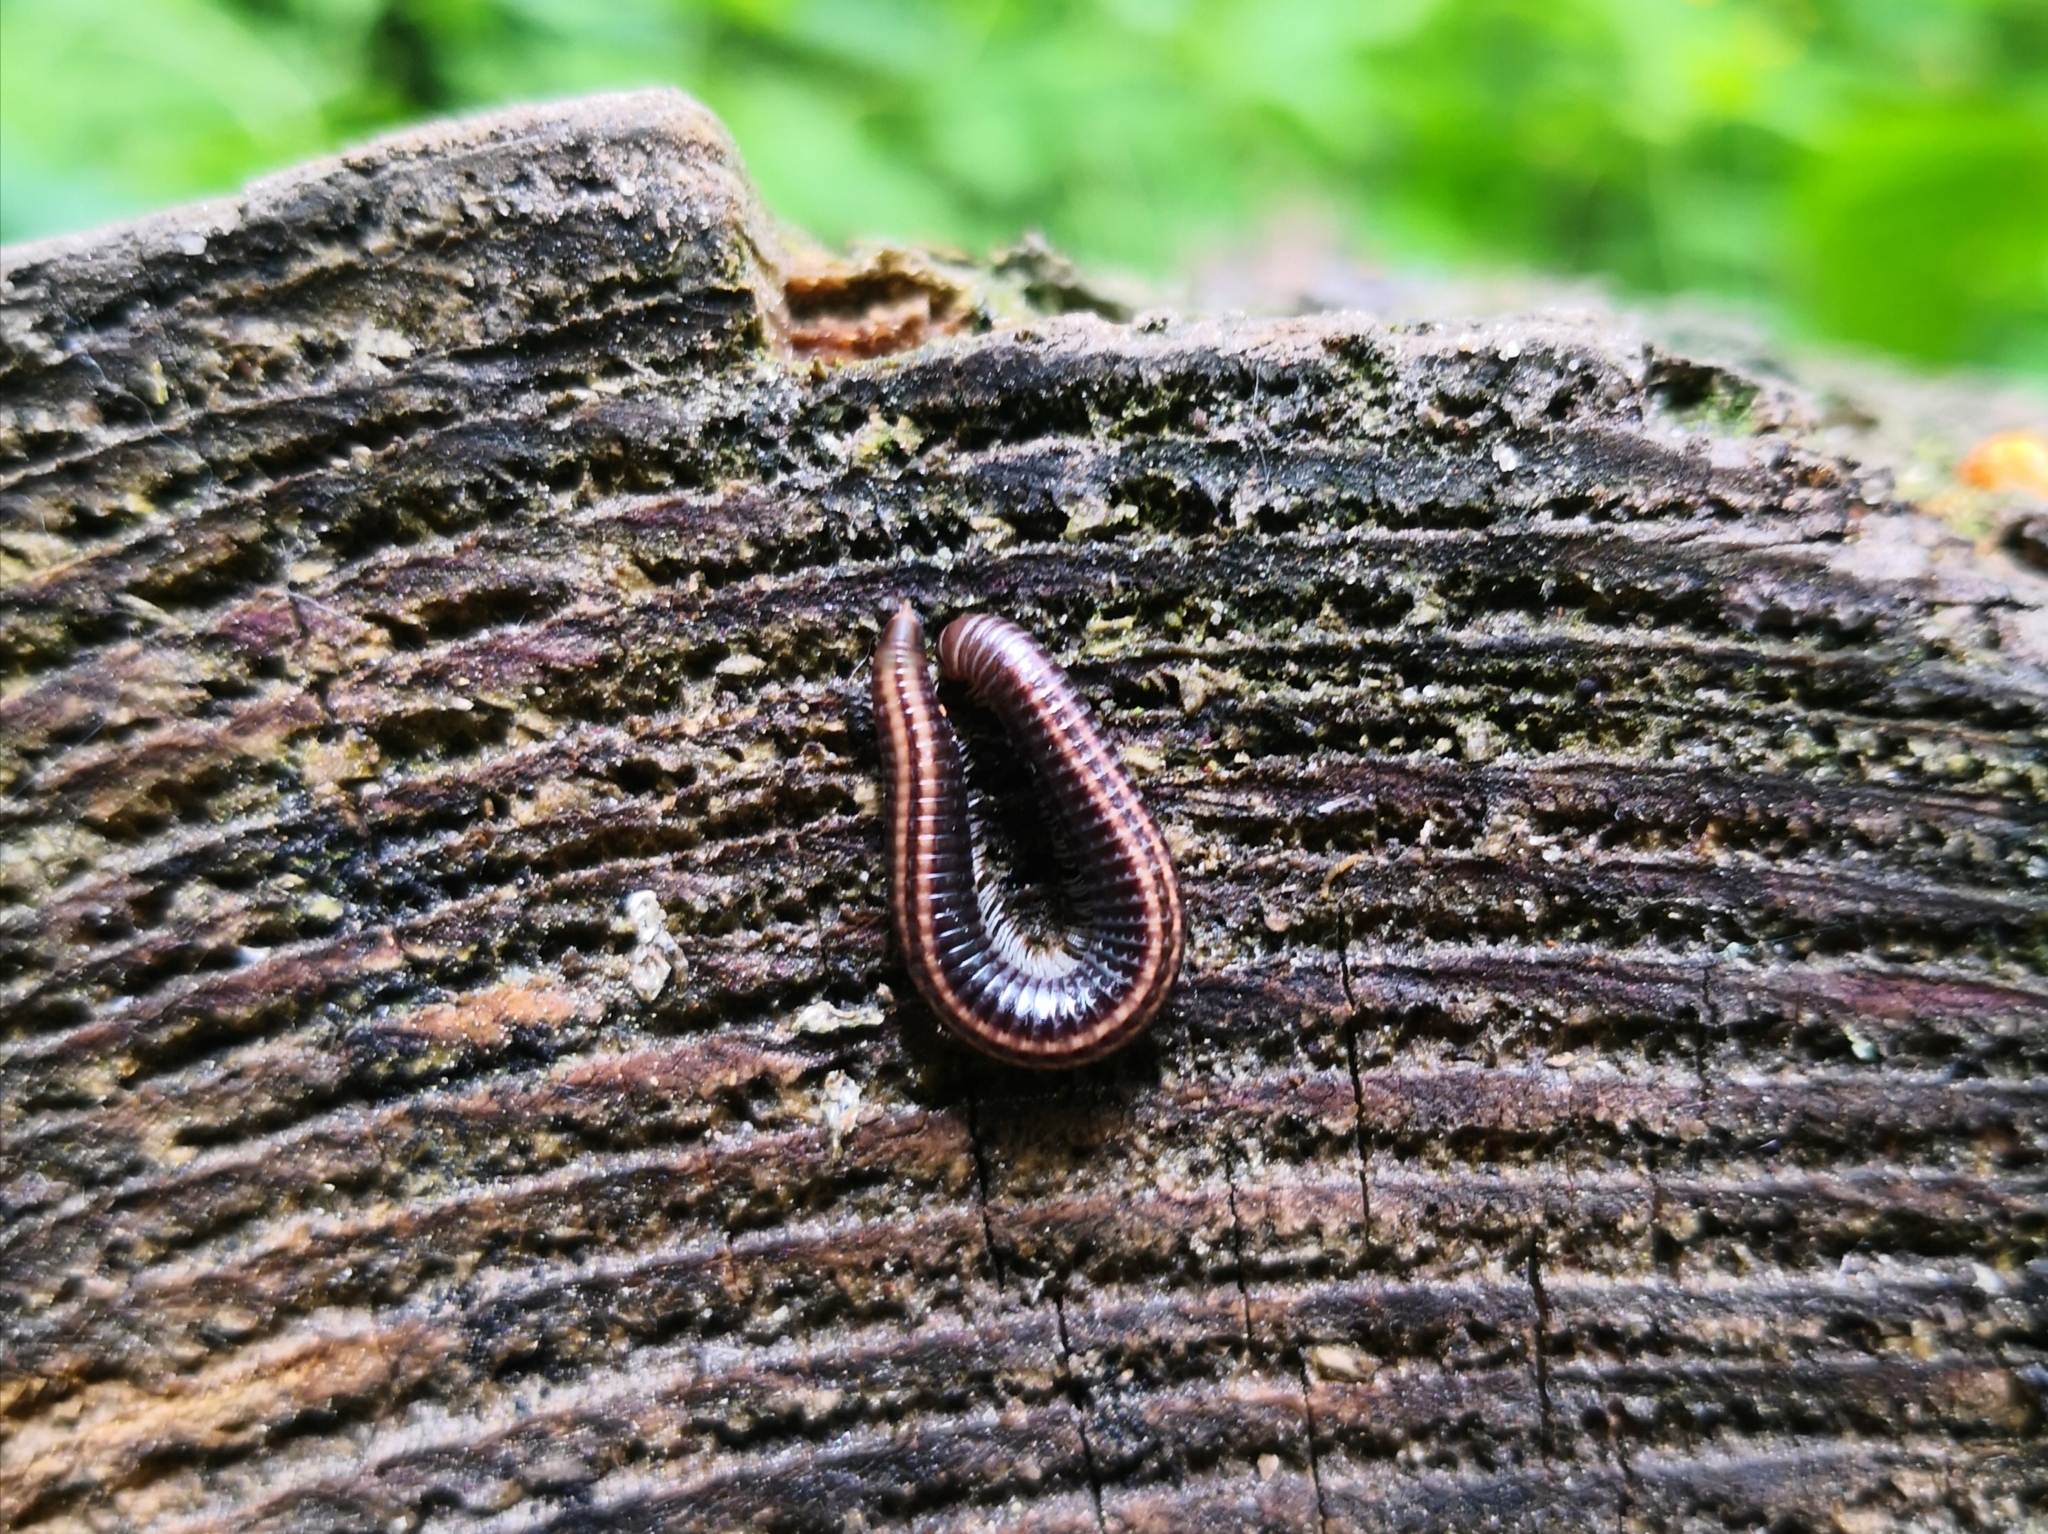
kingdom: Animalia
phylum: Arthropoda
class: Diplopoda
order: Julida
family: Julidae
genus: Ommatoiulus
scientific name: Ommatoiulus sabulosus
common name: Striped millipede
